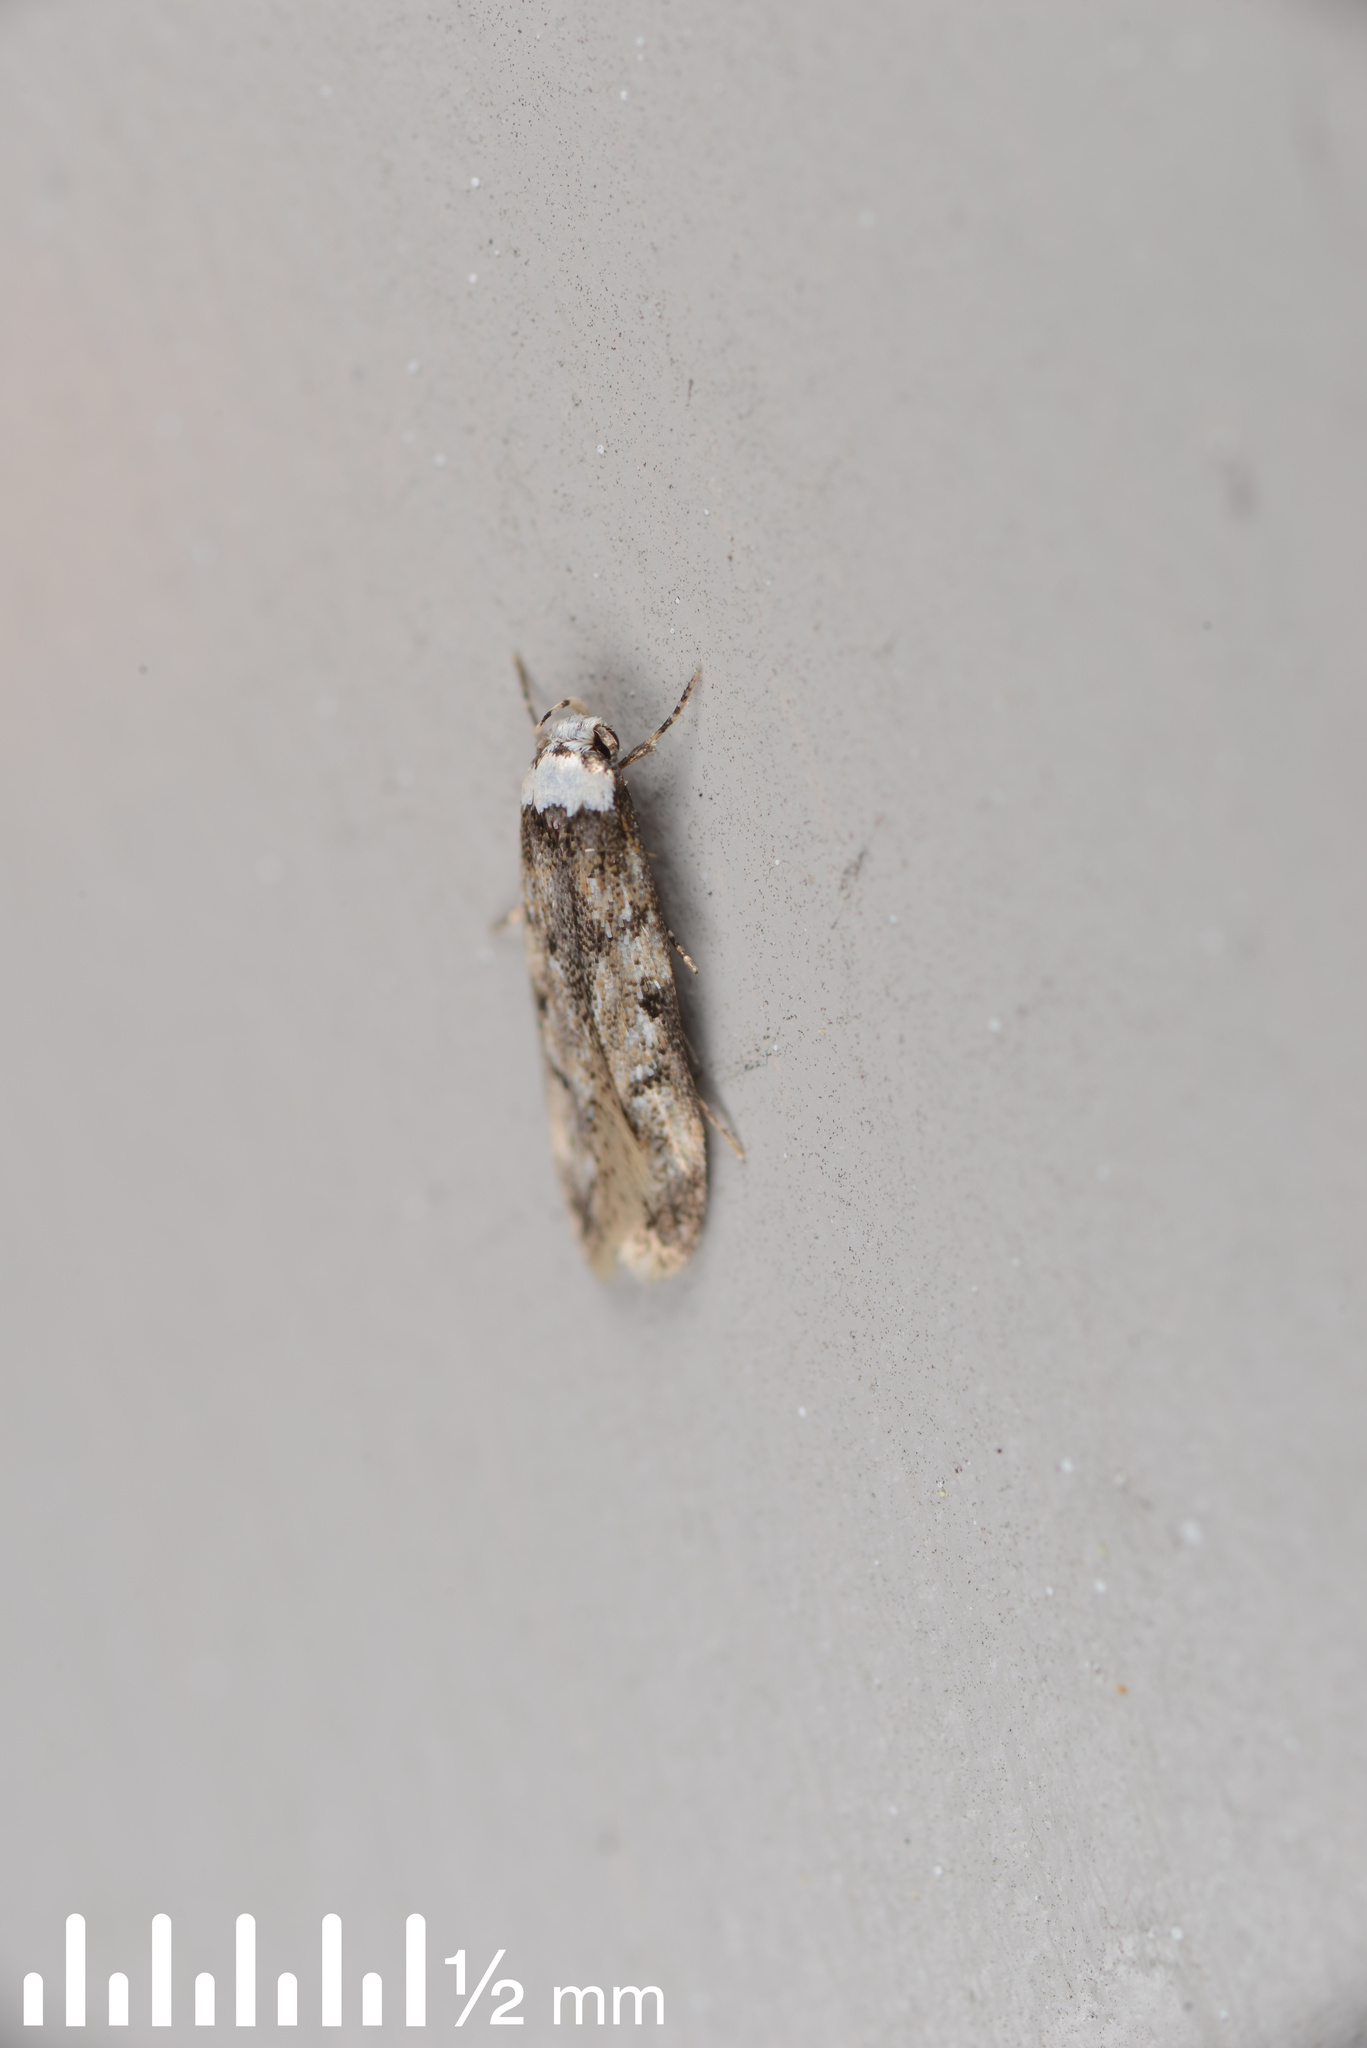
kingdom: Animalia
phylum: Arthropoda
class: Insecta
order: Lepidoptera
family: Oecophoridae
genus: Endrosis
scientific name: Endrosis sarcitrella
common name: White-shouldered house moth
